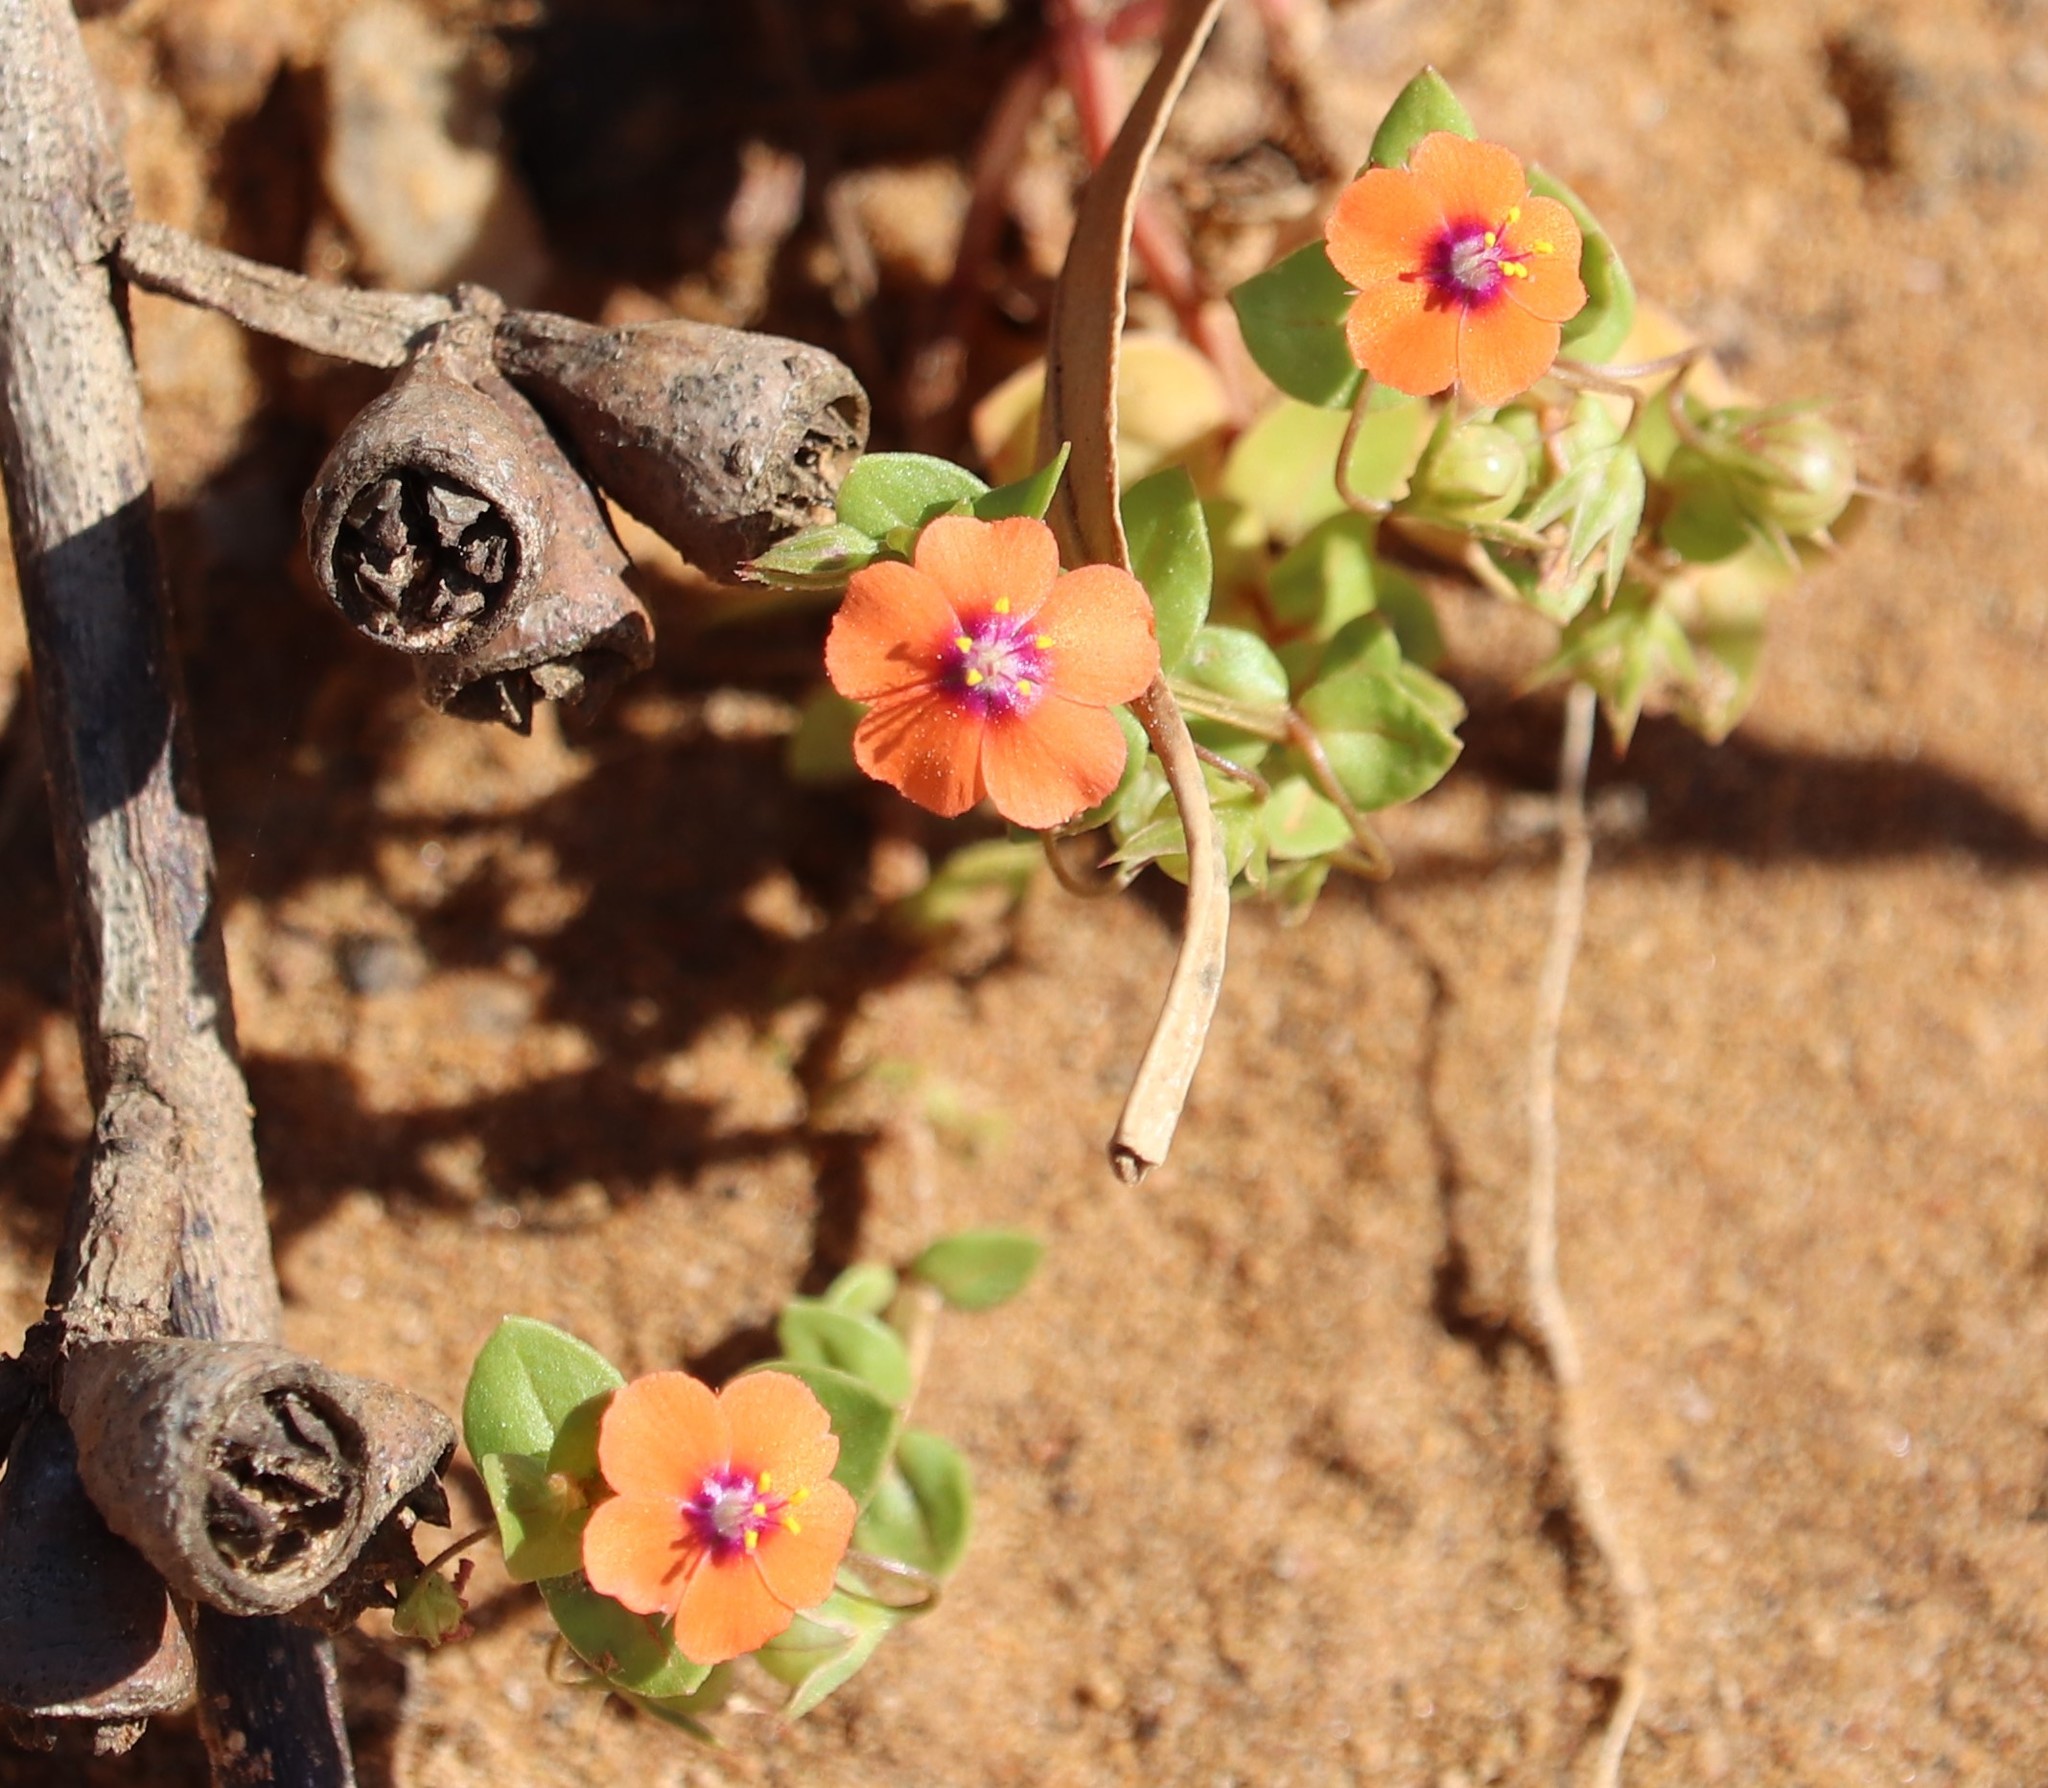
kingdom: Plantae
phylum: Tracheophyta
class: Magnoliopsida
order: Ericales
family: Primulaceae
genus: Lysimachia
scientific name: Lysimachia arvensis
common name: Scarlet pimpernel
